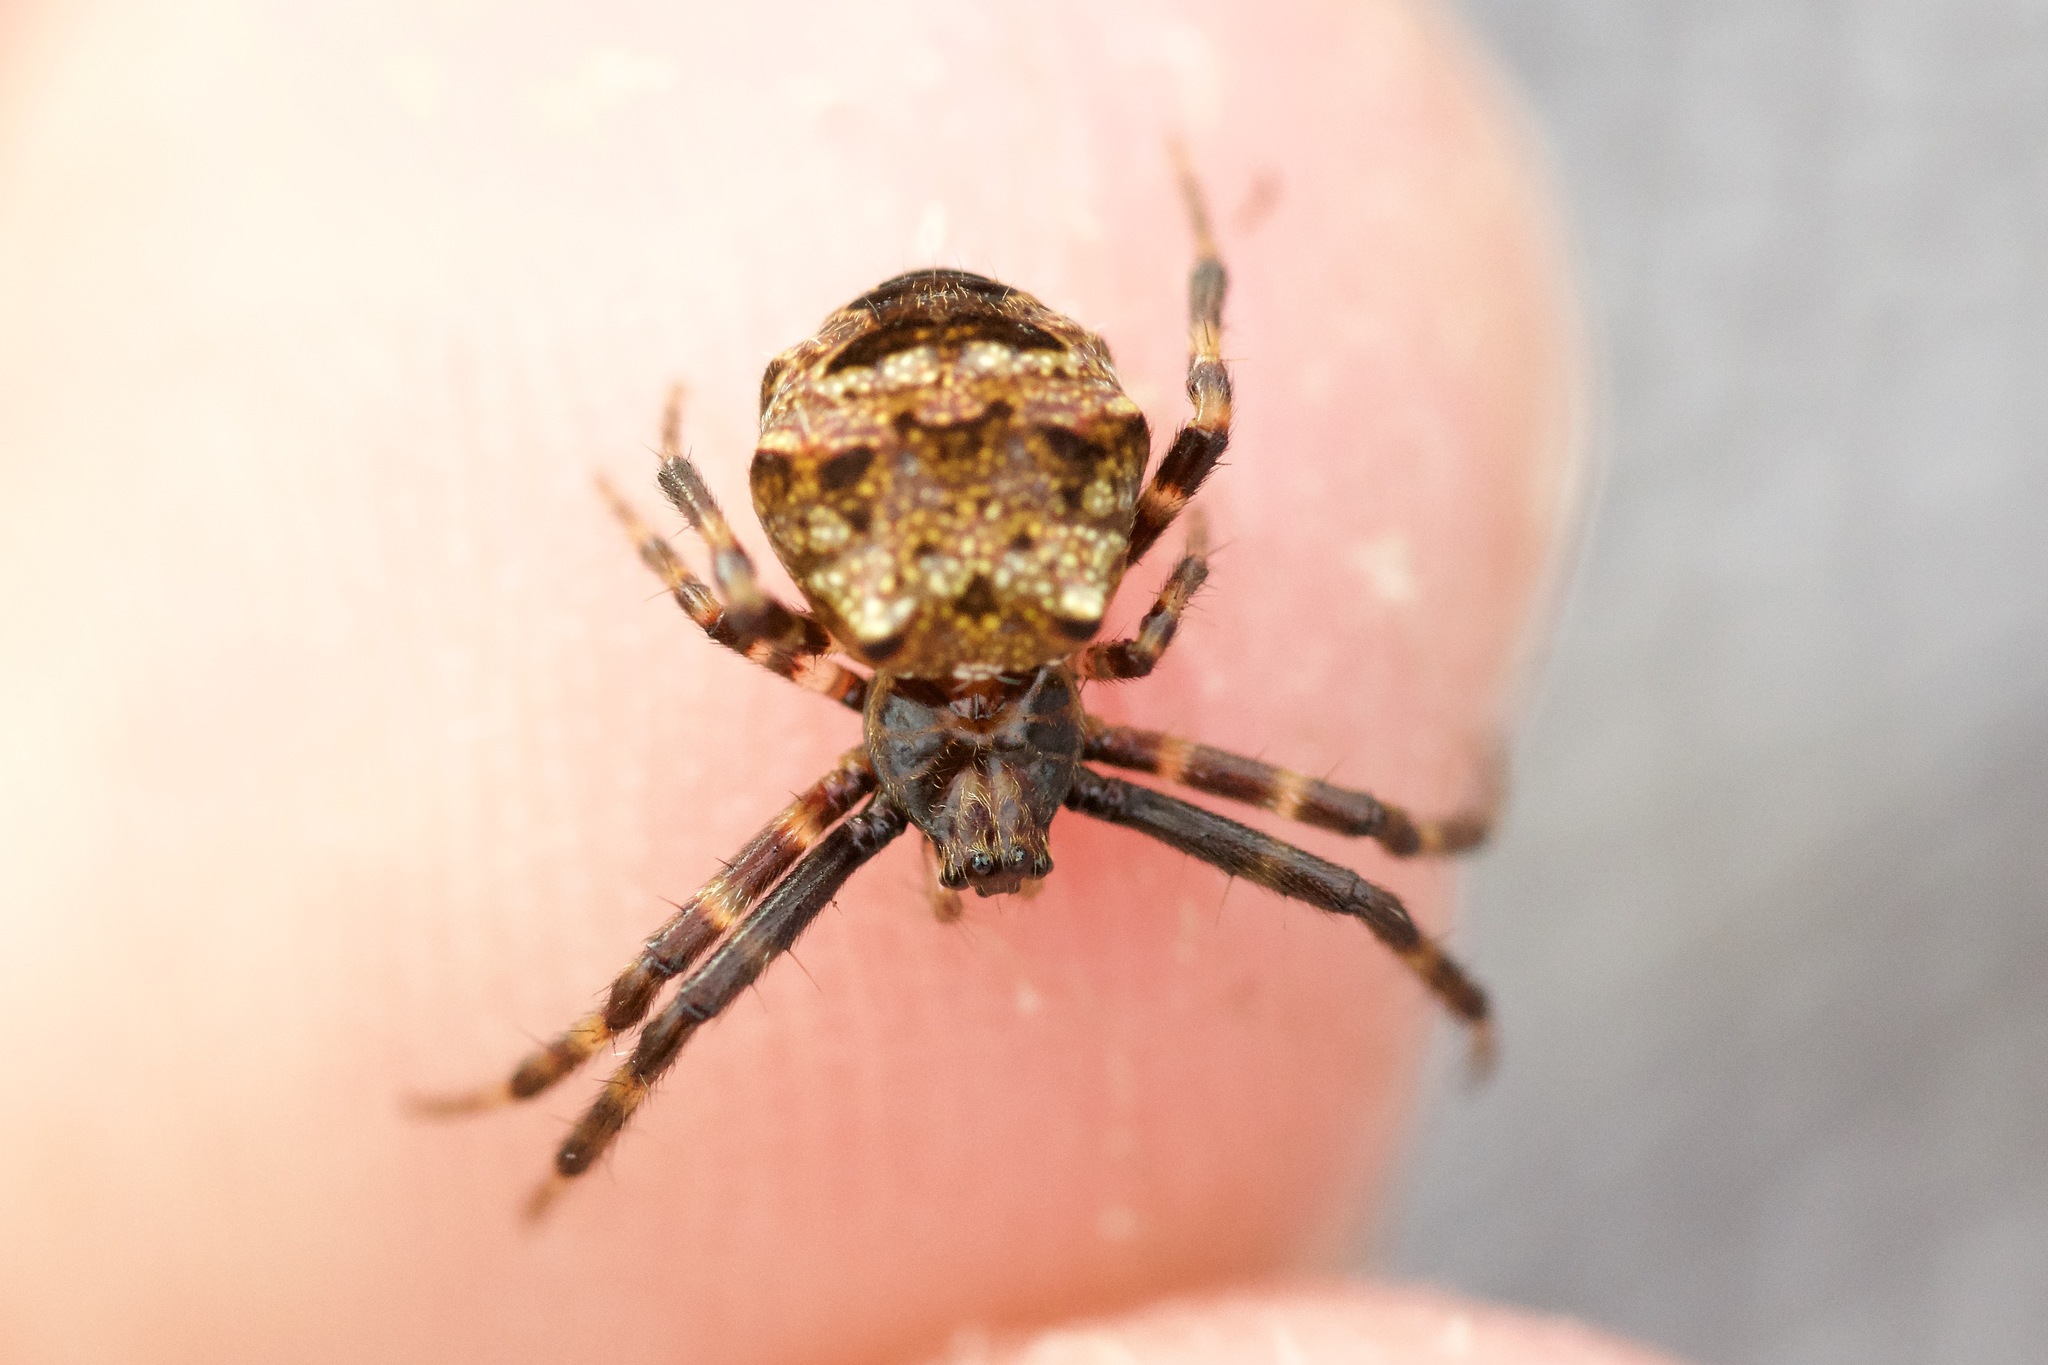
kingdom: Animalia
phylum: Arthropoda
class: Arachnida
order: Araneae
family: Araneidae
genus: Gea
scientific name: Gea heptagon
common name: Orb weavers
